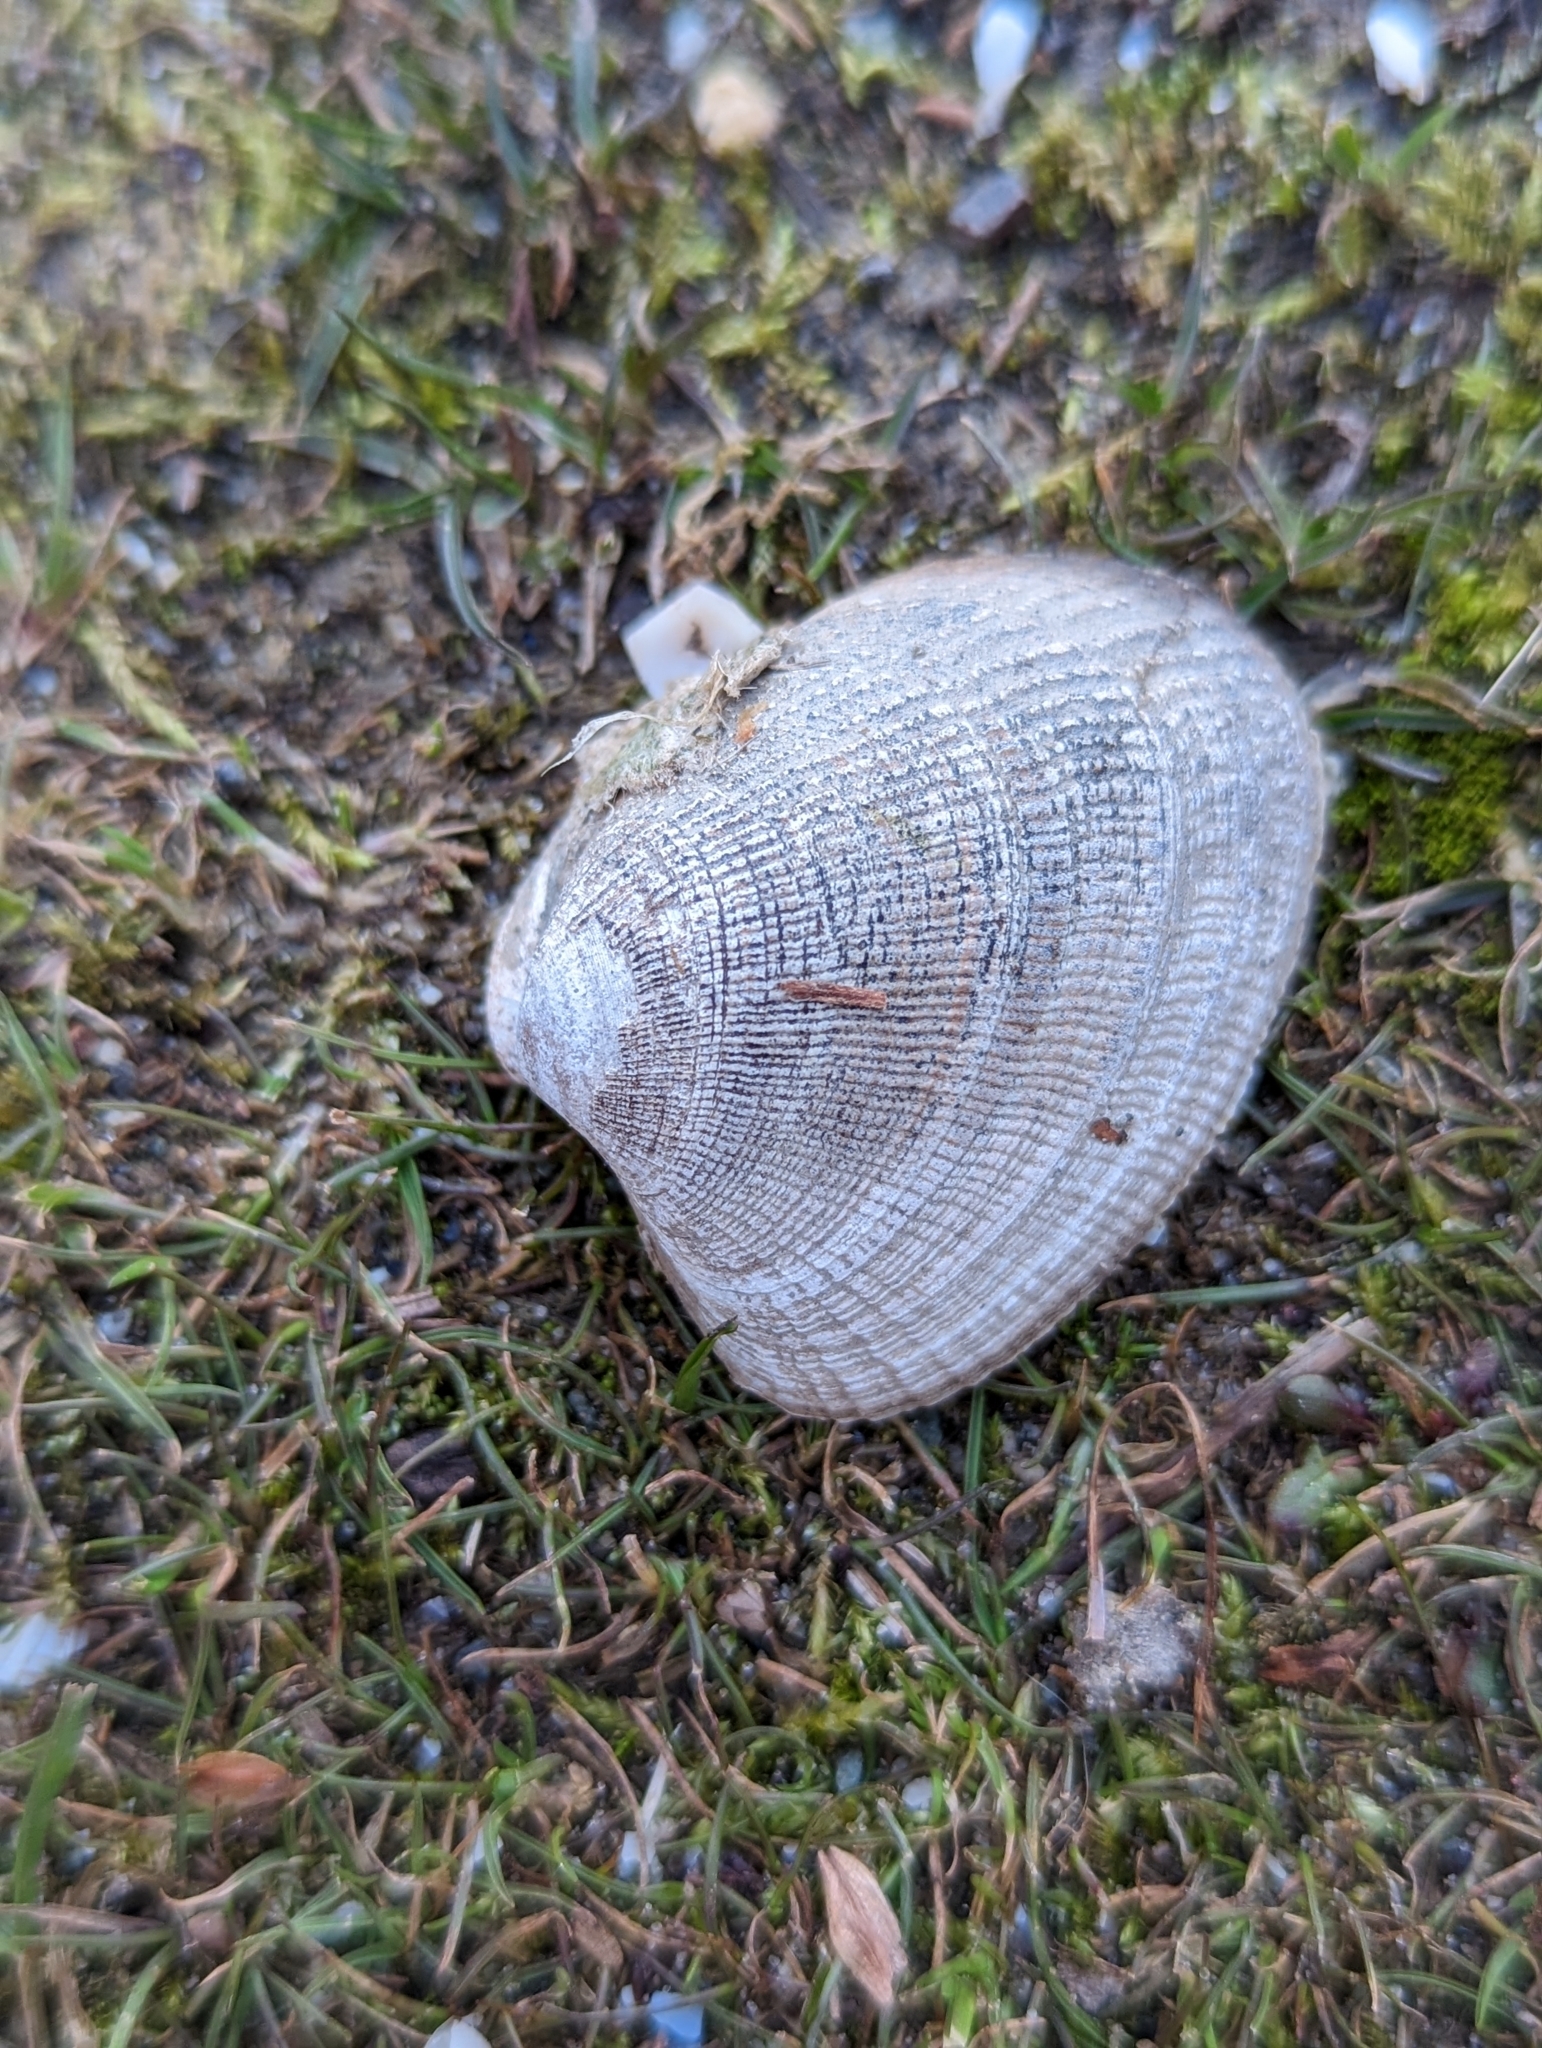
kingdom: Animalia
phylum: Mollusca
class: Bivalvia
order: Venerida
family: Veneridae
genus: Ruditapes
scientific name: Ruditapes philippinarum
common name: Manila clam
